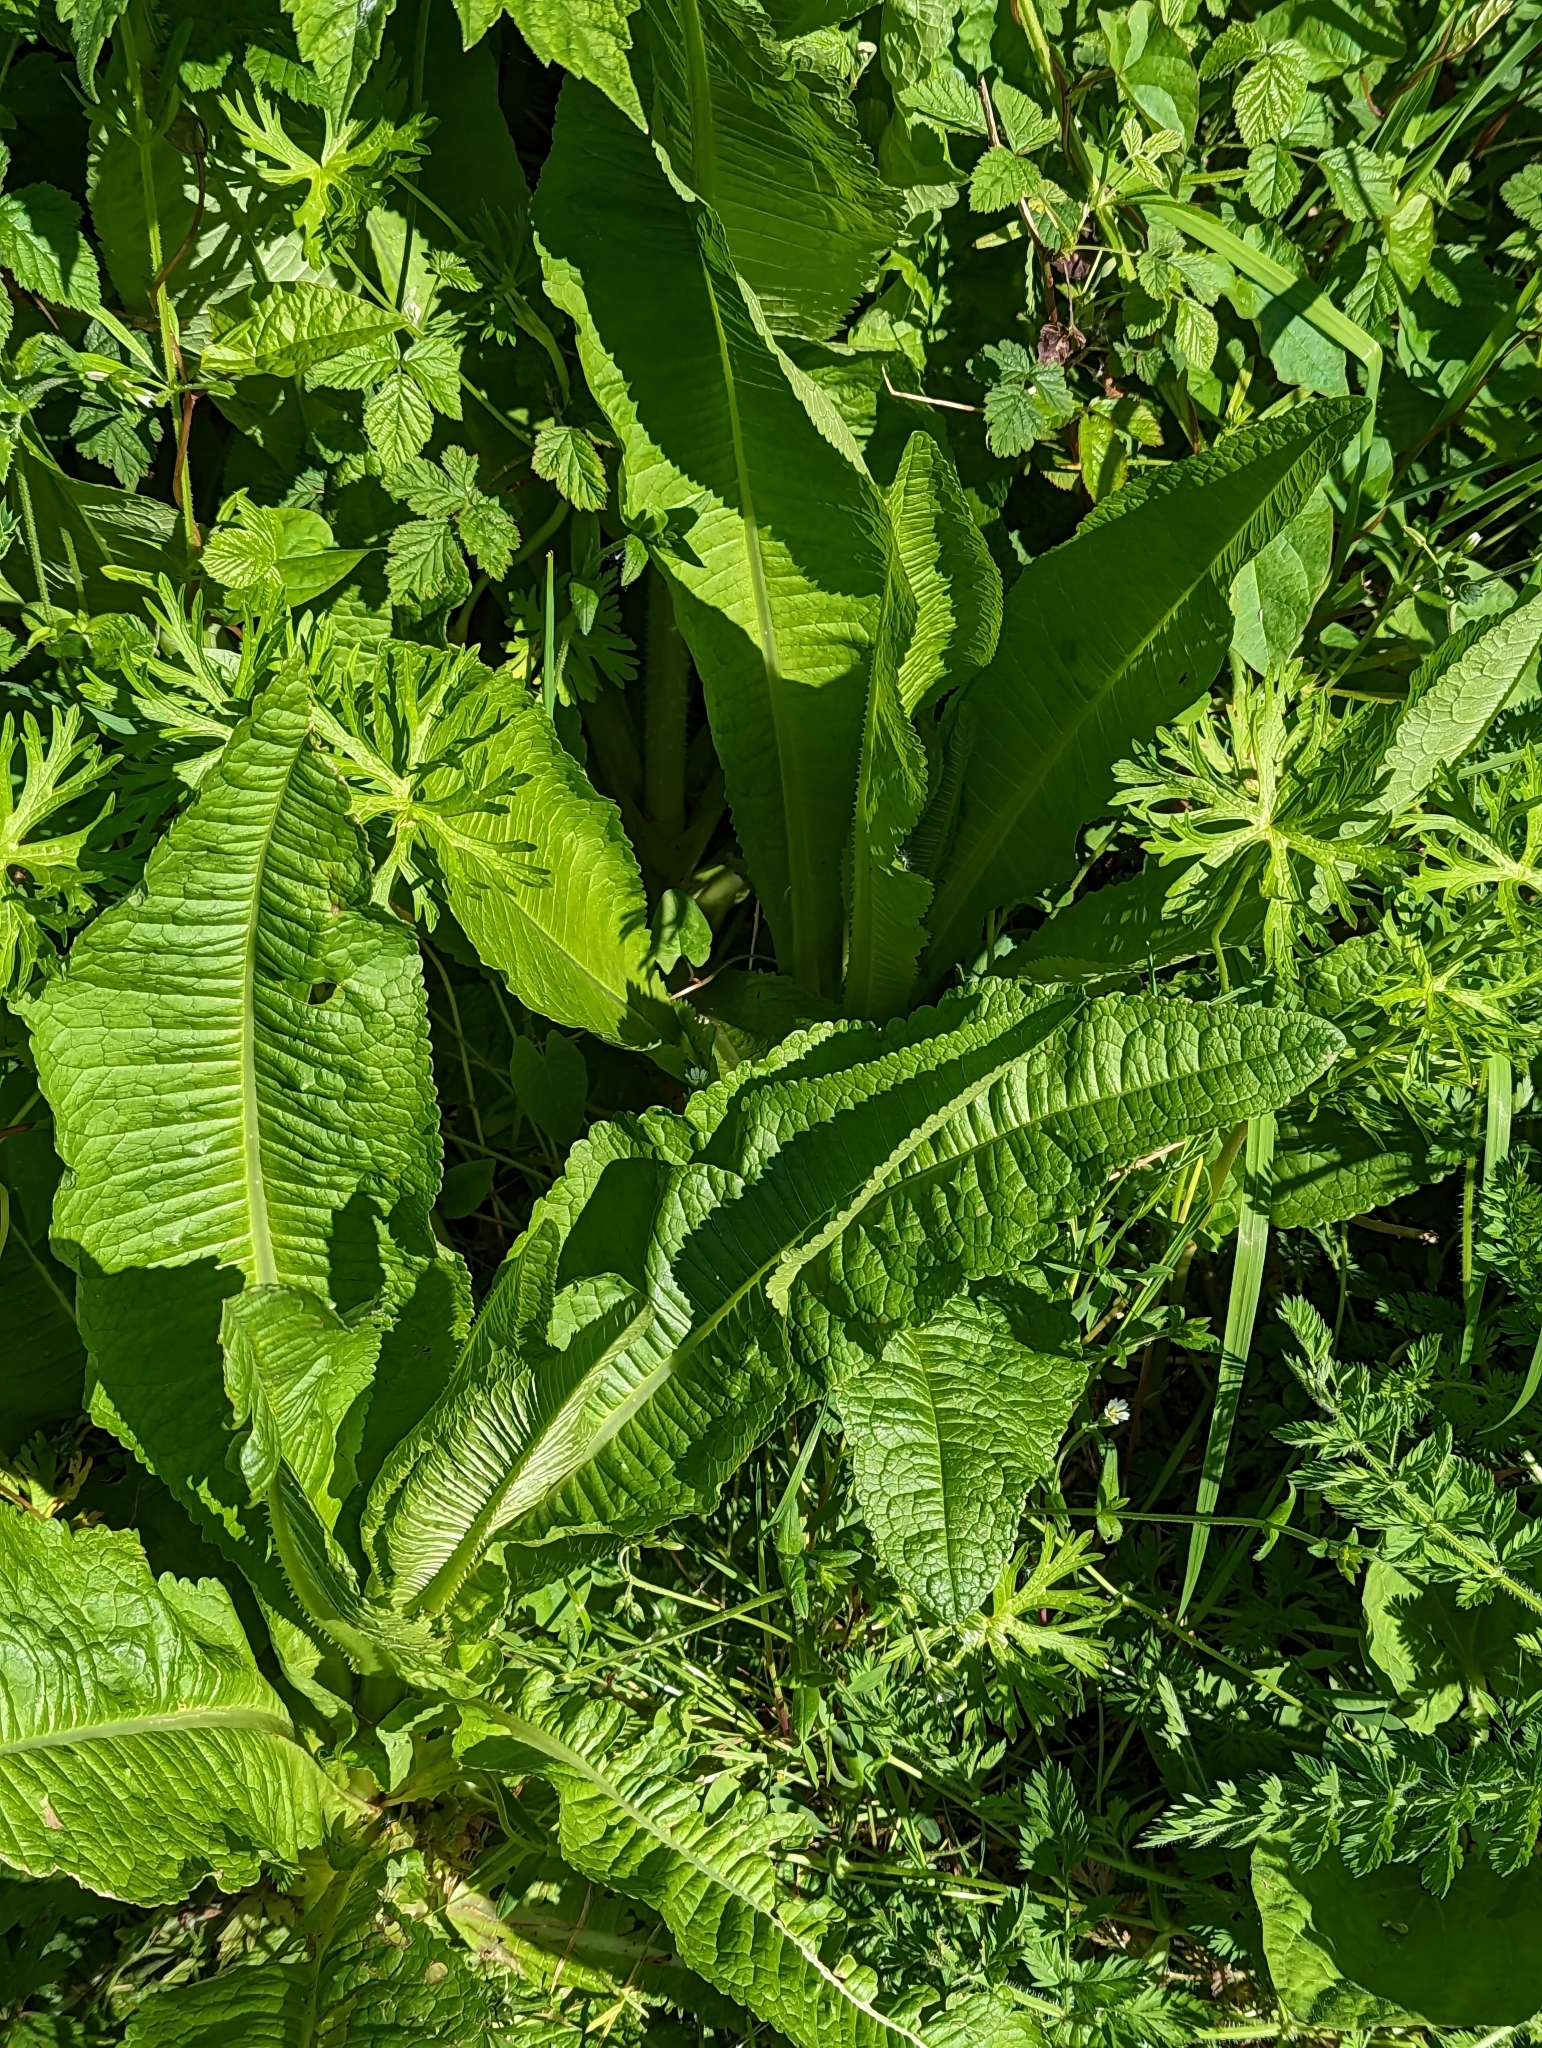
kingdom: Plantae
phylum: Tracheophyta
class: Magnoliopsida
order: Dipsacales
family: Caprifoliaceae
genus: Dipsacus
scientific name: Dipsacus fullonum
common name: Teasel
